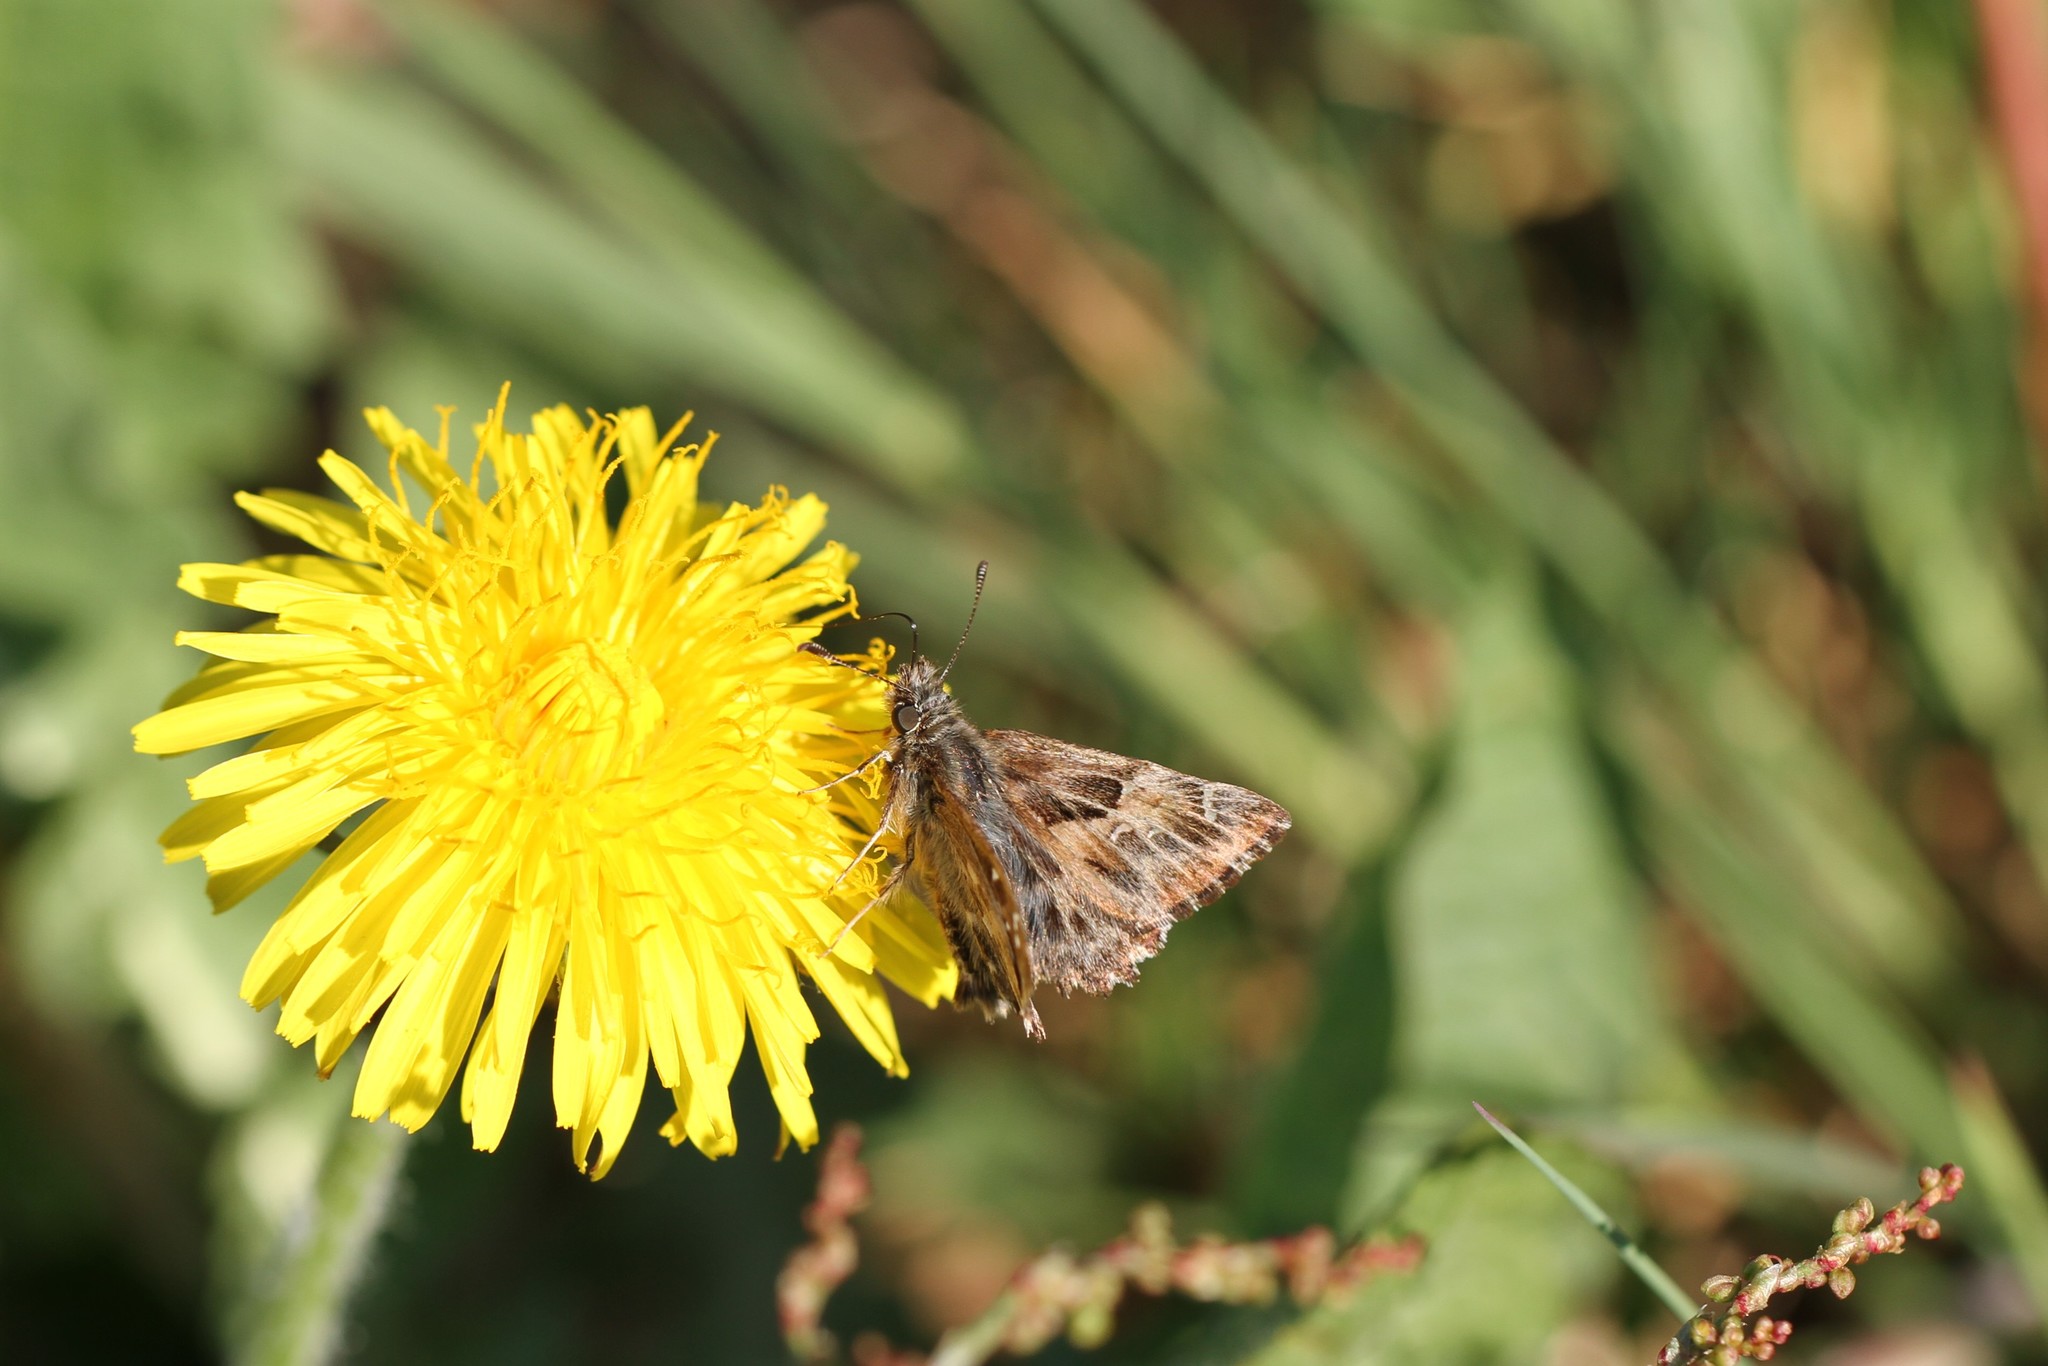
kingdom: Animalia
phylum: Arthropoda
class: Insecta
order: Lepidoptera
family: Hesperiidae
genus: Carcharodus
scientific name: Carcharodus alceae
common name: Mallow skipper
